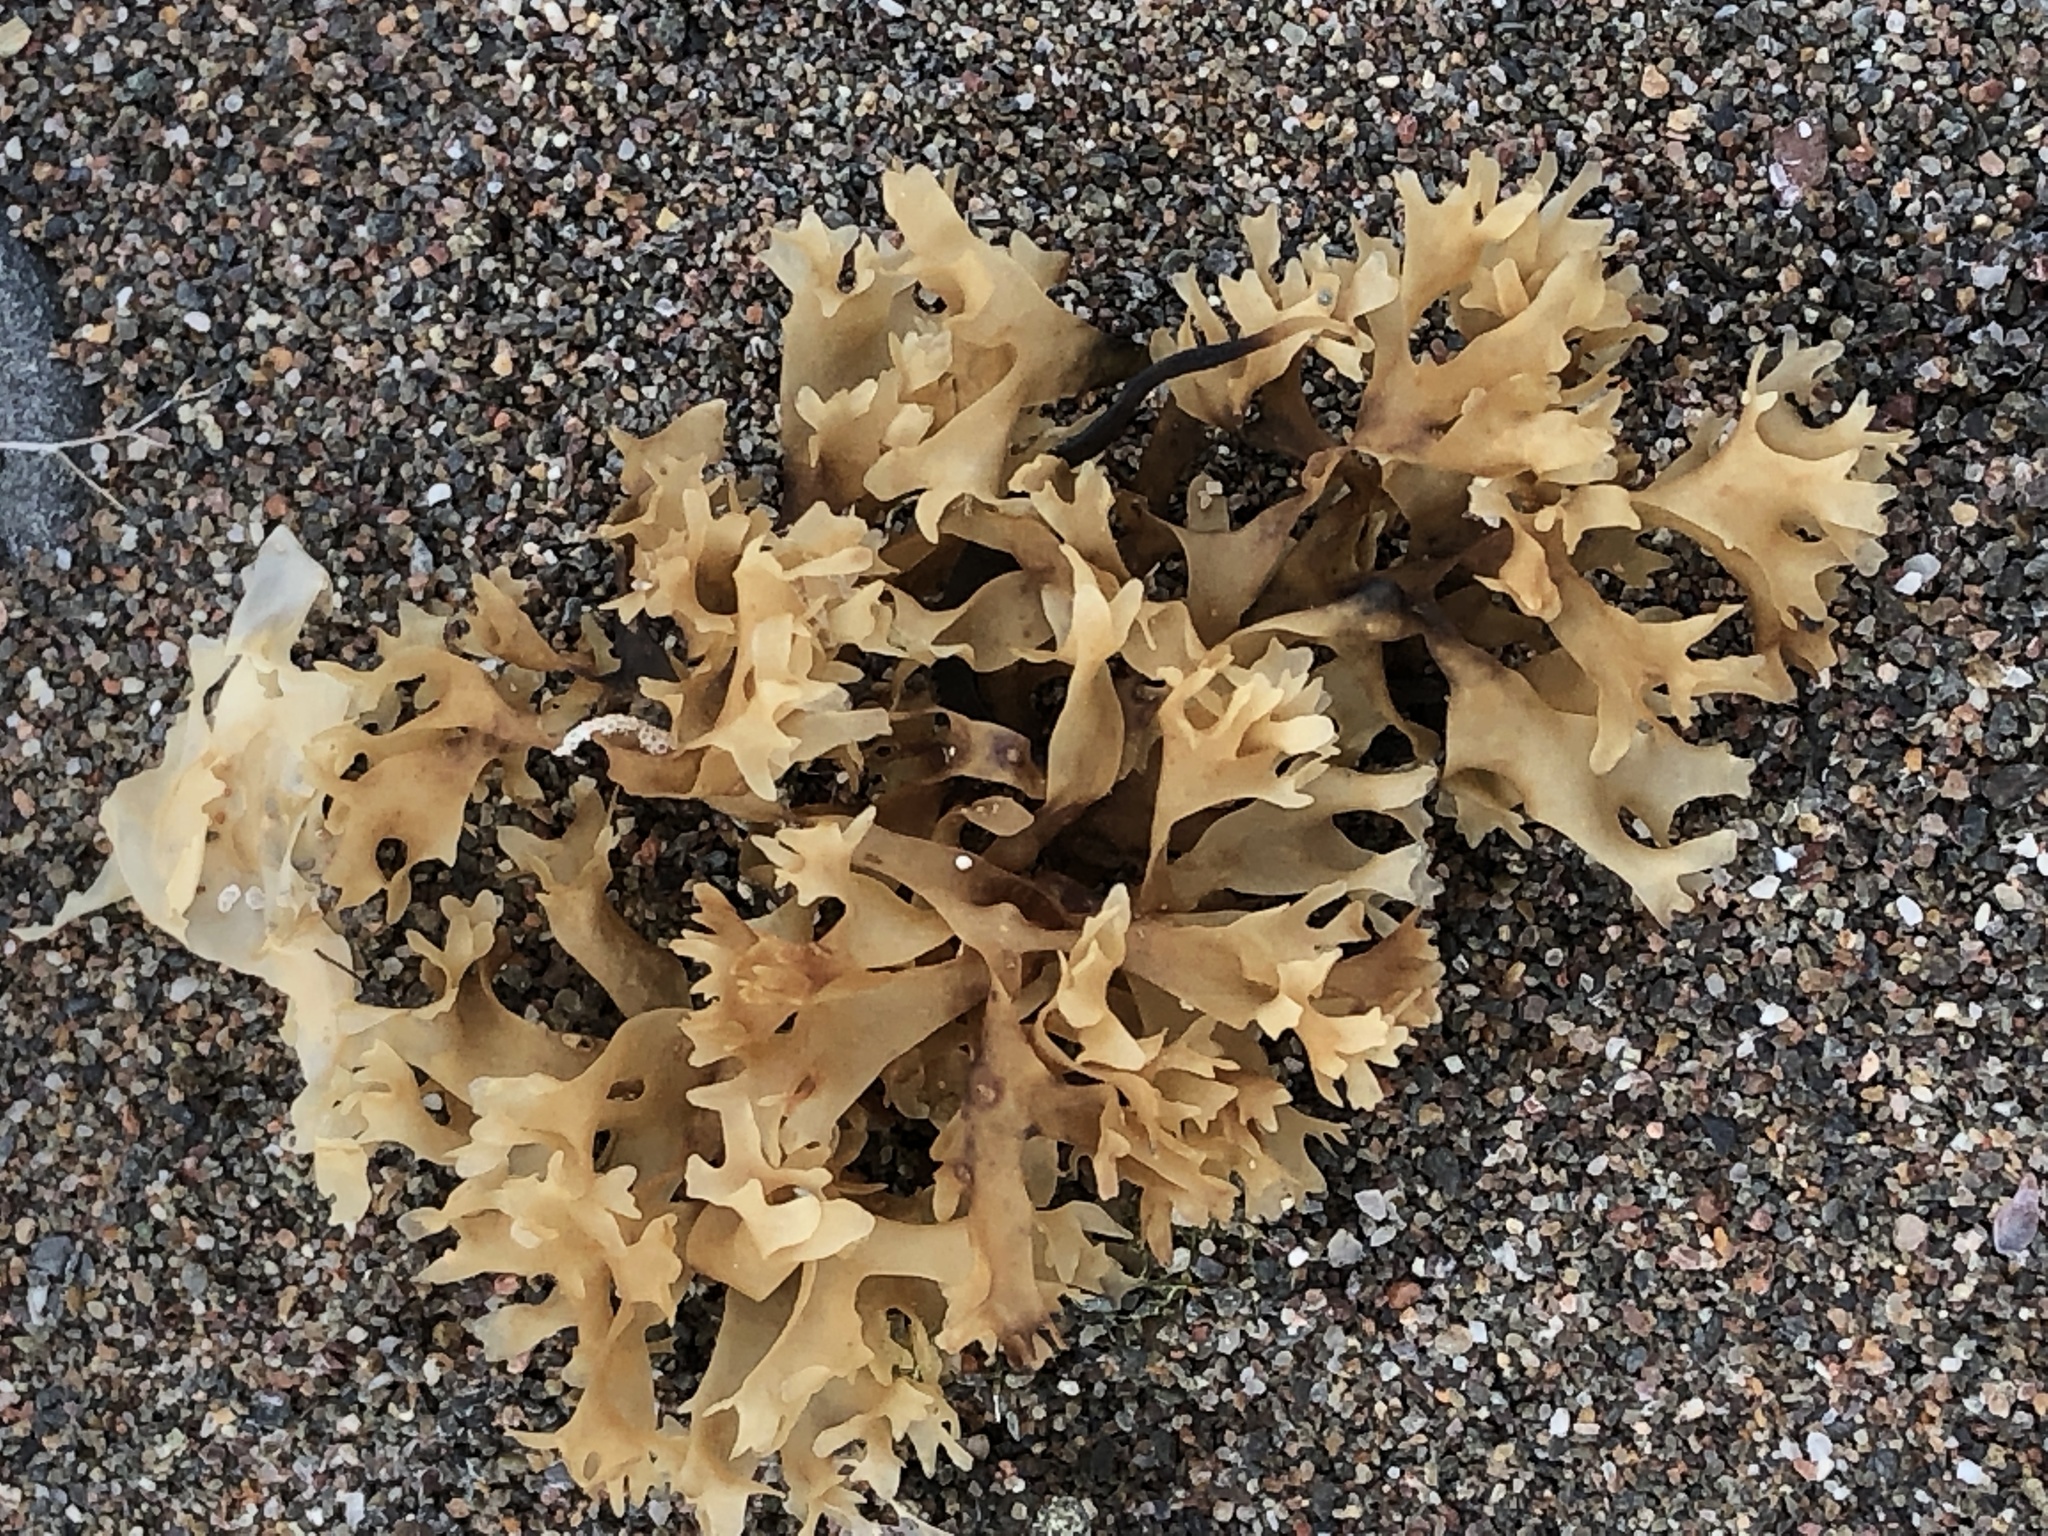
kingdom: Plantae
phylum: Rhodophyta
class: Florideophyceae
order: Gigartinales
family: Gigartinaceae
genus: Chondrus
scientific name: Chondrus crispus
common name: Carrageen
